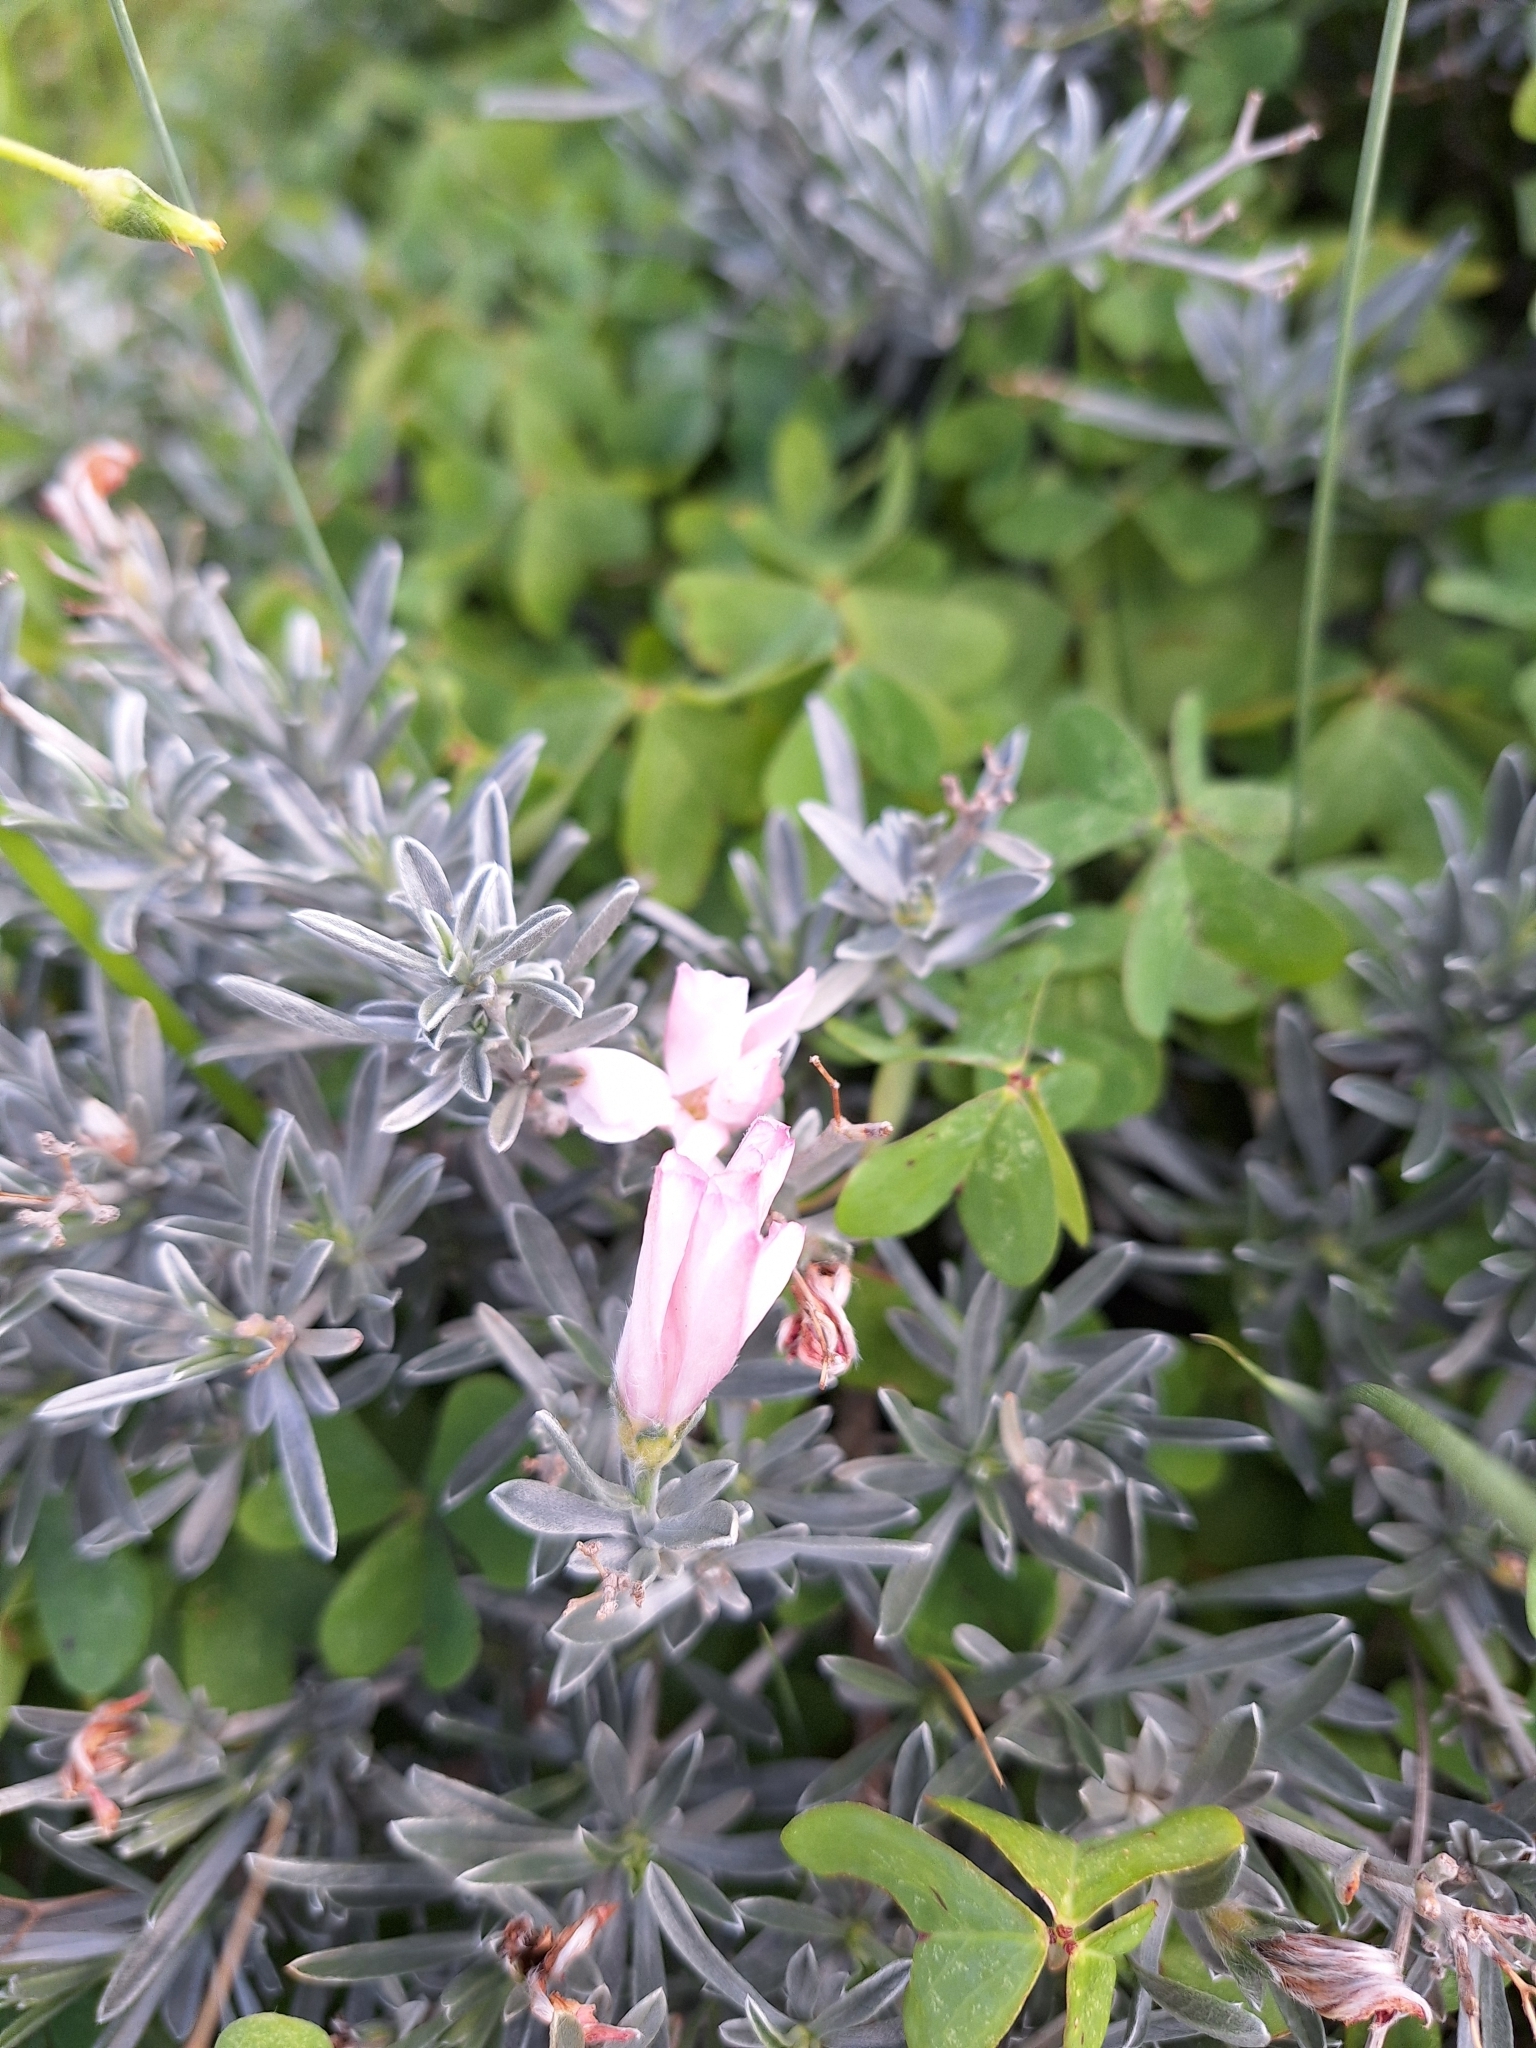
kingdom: Plantae
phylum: Tracheophyta
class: Magnoliopsida
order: Solanales
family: Convolvulaceae
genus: Convolvulus
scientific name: Convolvulus lineatus
